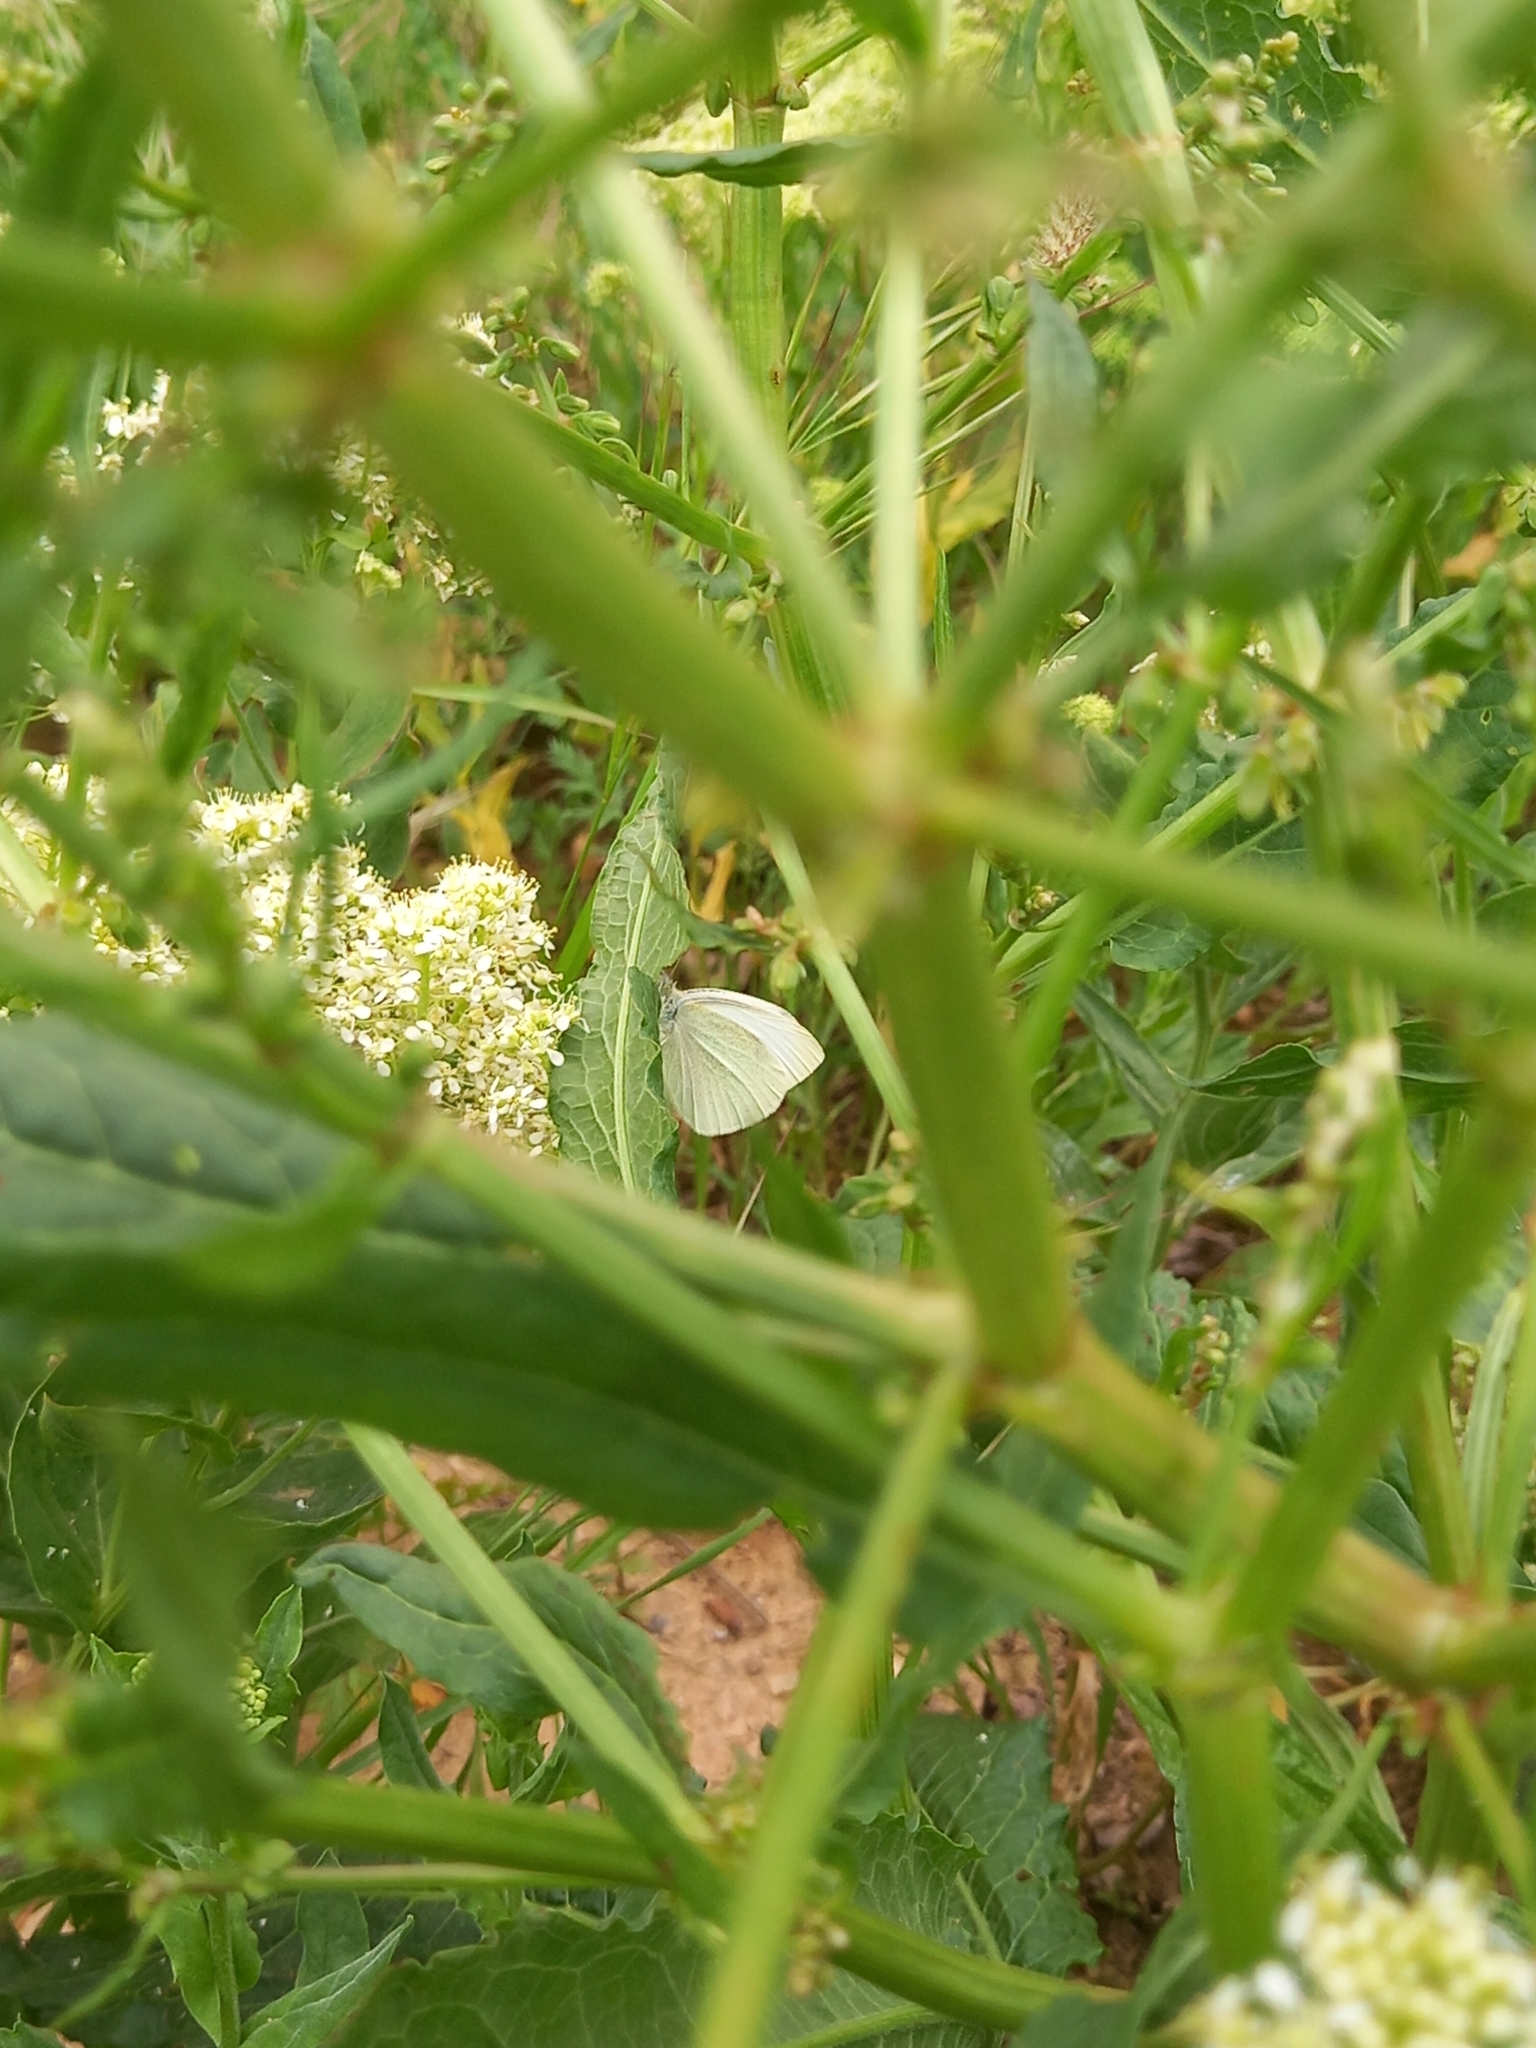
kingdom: Animalia
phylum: Arthropoda
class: Insecta
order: Lepidoptera
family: Pieridae
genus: Pieris
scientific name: Pieris rapae
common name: Small white
